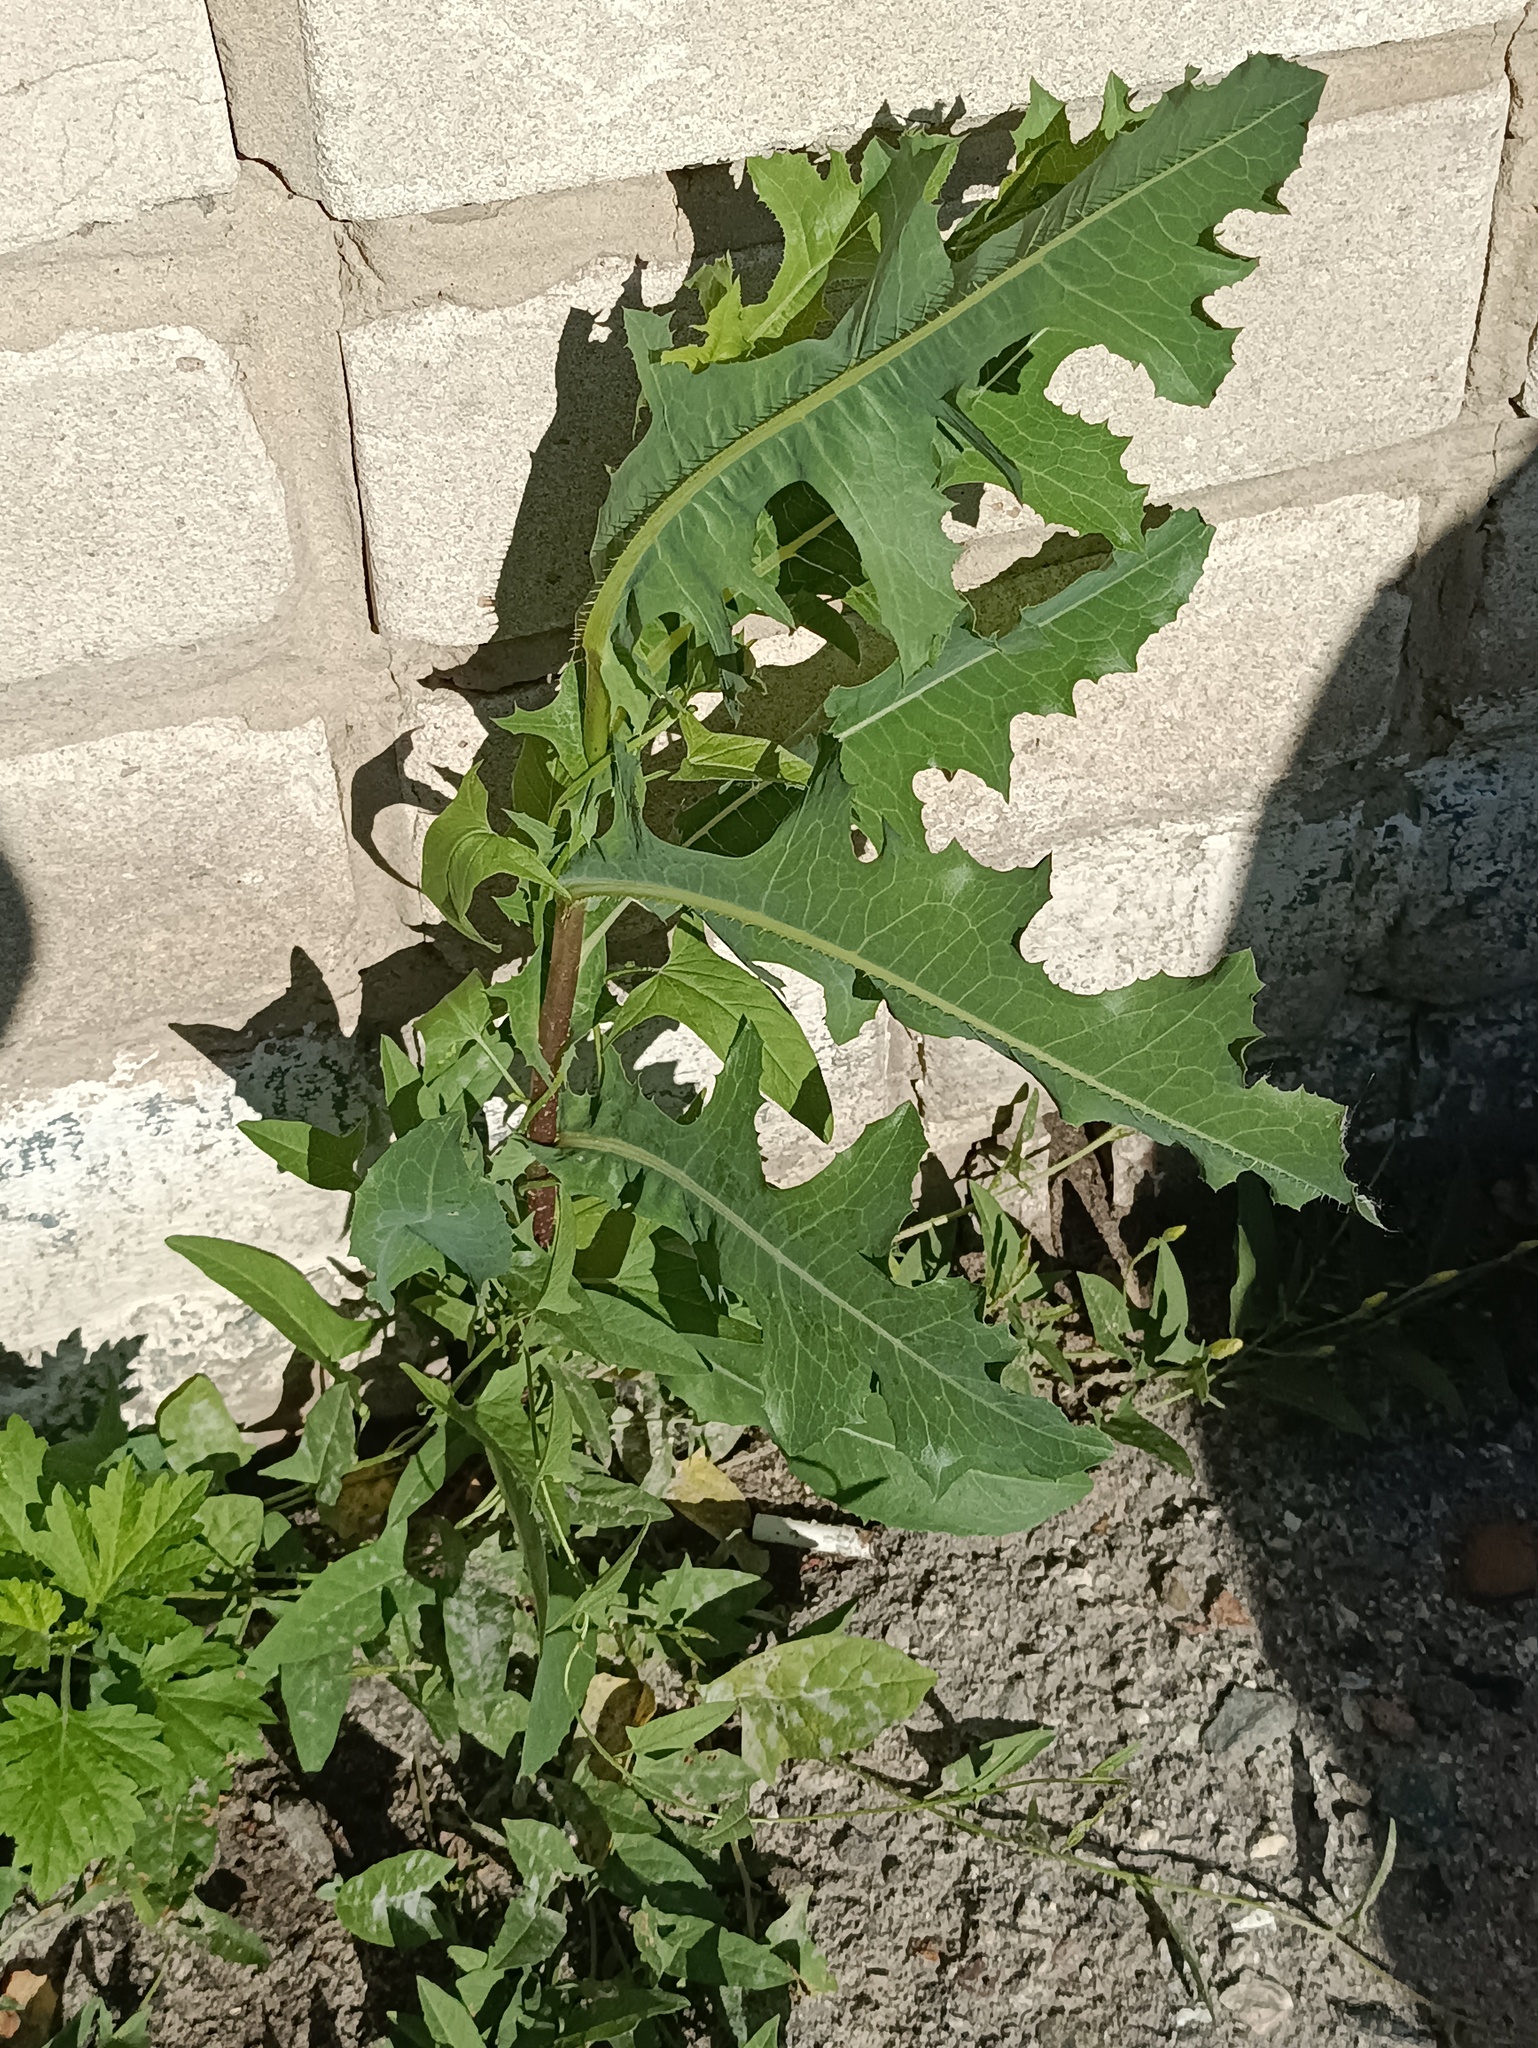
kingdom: Plantae
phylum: Tracheophyta
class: Magnoliopsida
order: Asterales
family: Asteraceae
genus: Lactuca
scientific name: Lactuca serriola
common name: Prickly lettuce
